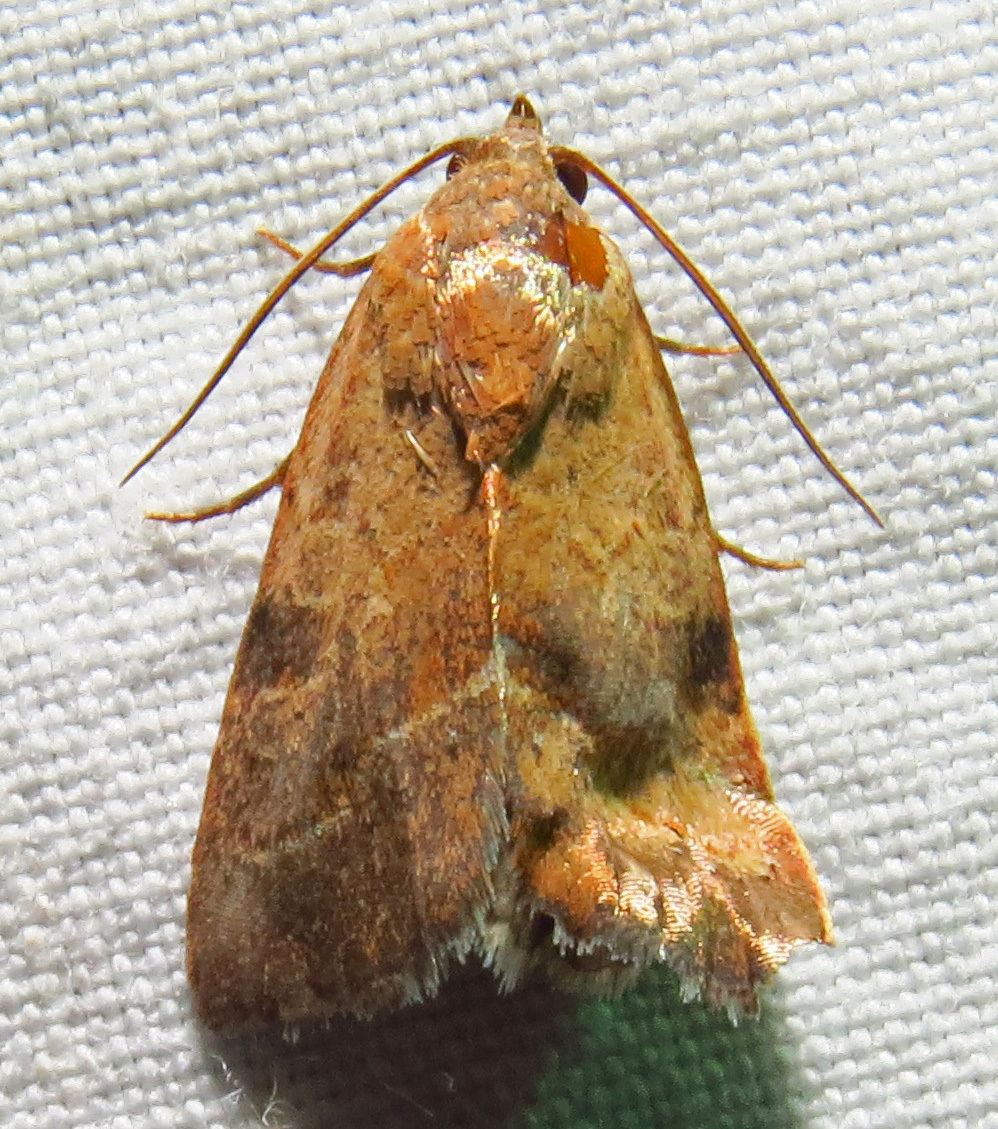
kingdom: Animalia
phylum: Arthropoda
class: Insecta
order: Lepidoptera
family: Noctuidae
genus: Galgula
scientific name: Galgula partita
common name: Wedgeling
